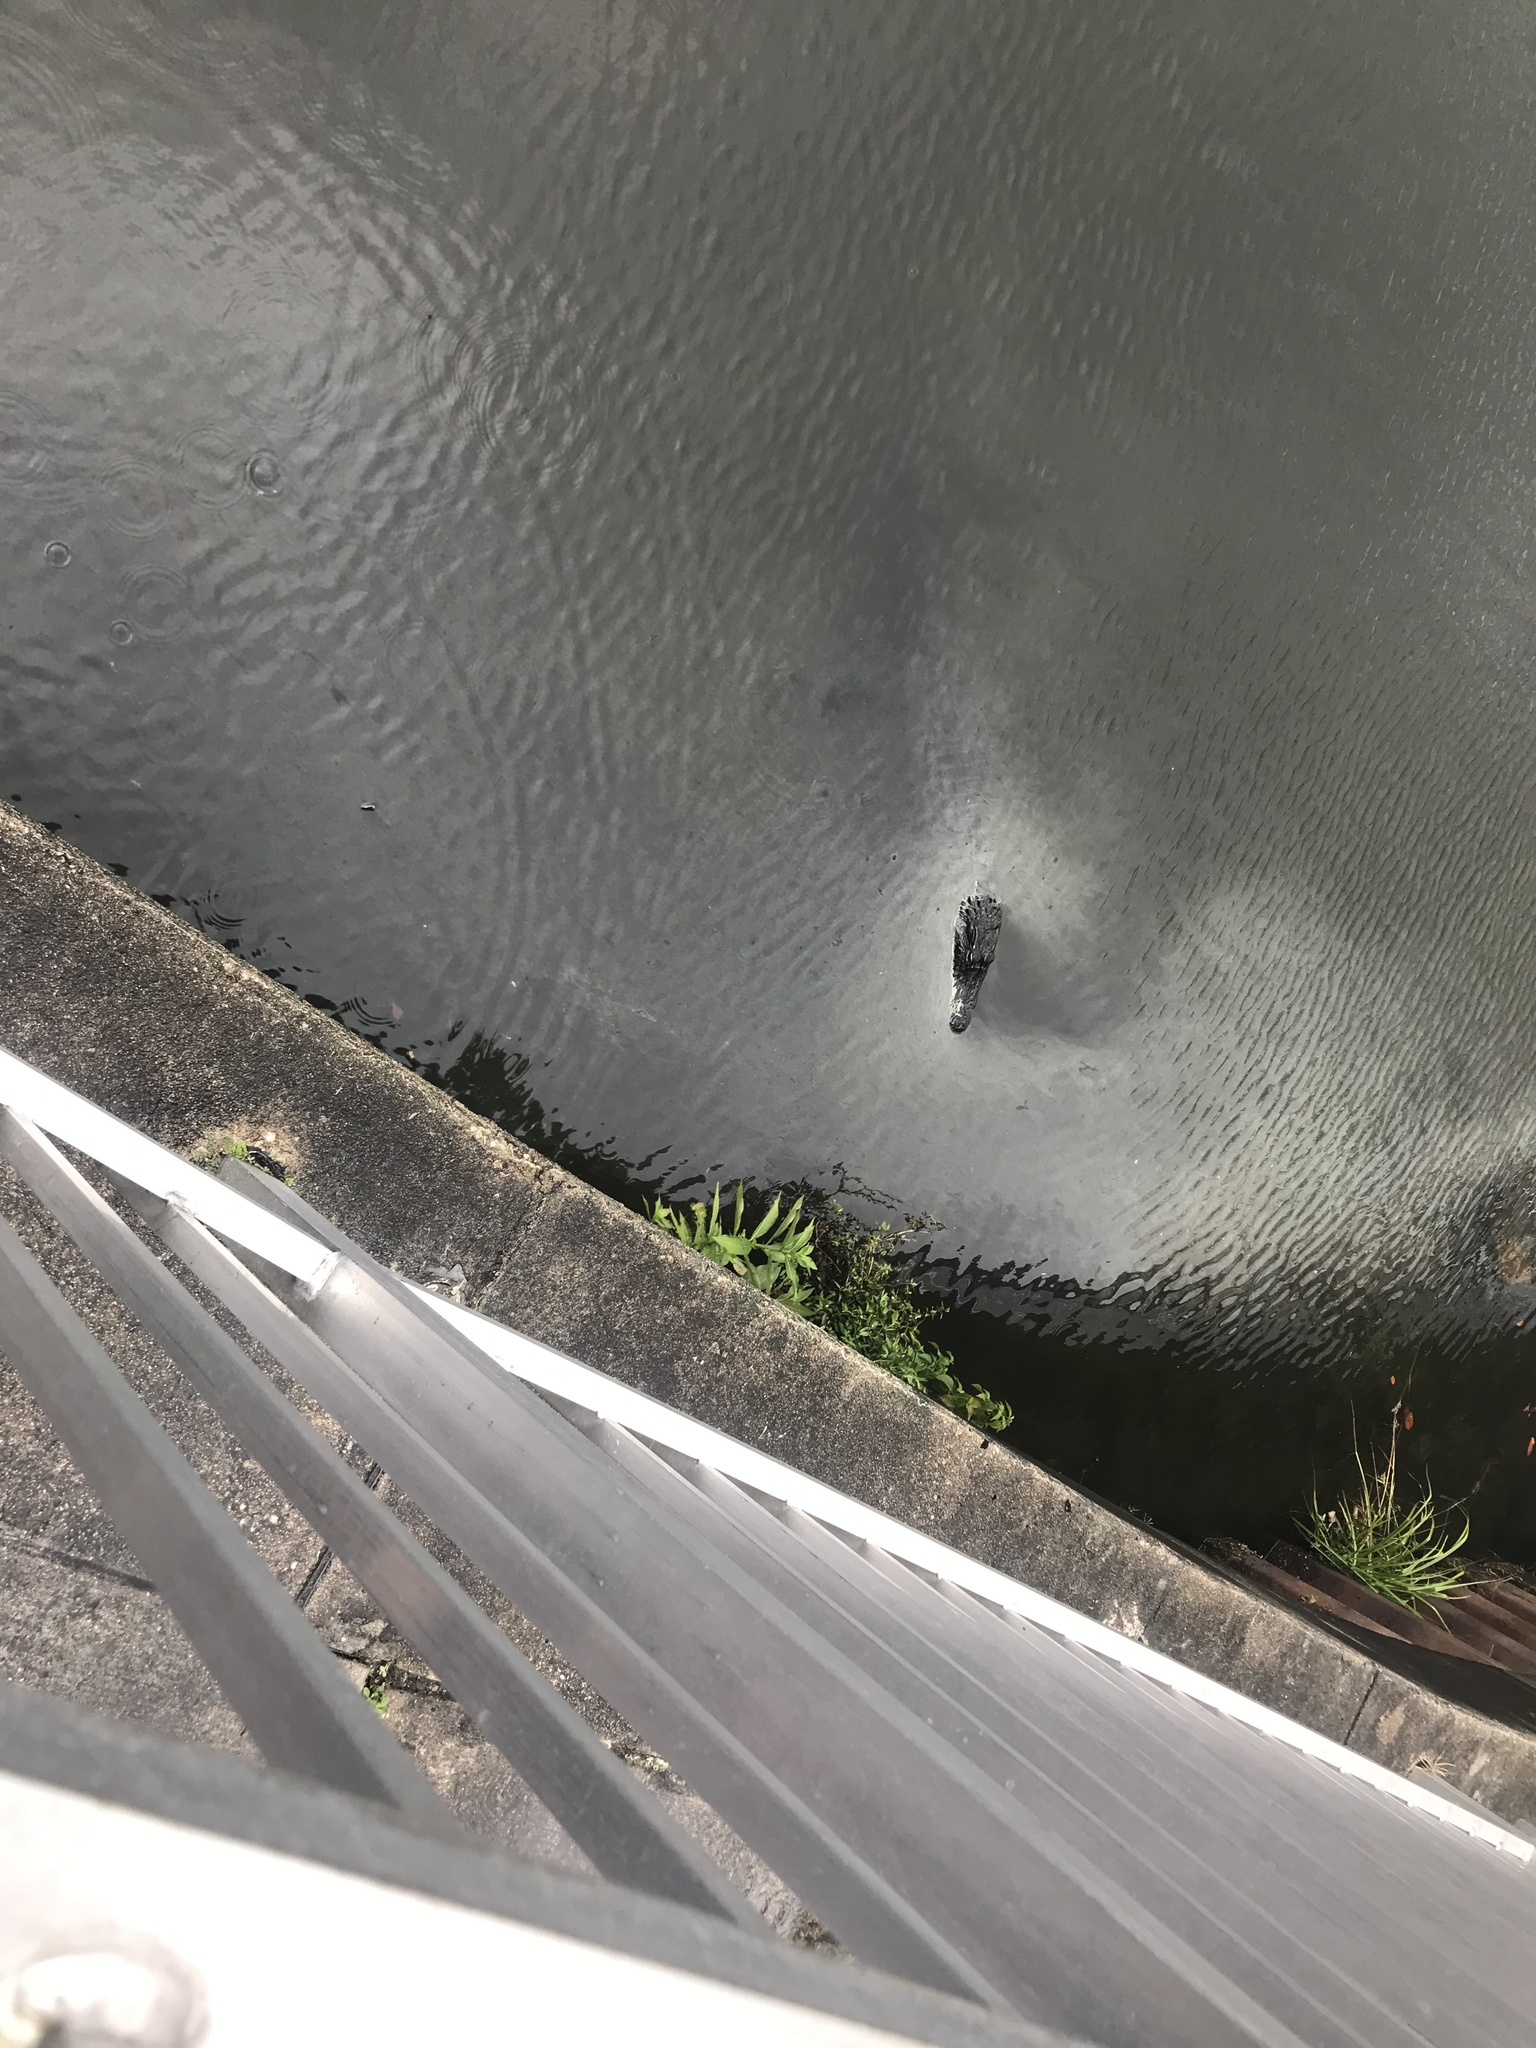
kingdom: Animalia
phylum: Chordata
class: Crocodylia
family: Alligatoridae
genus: Alligator
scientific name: Alligator mississippiensis
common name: American alligator
